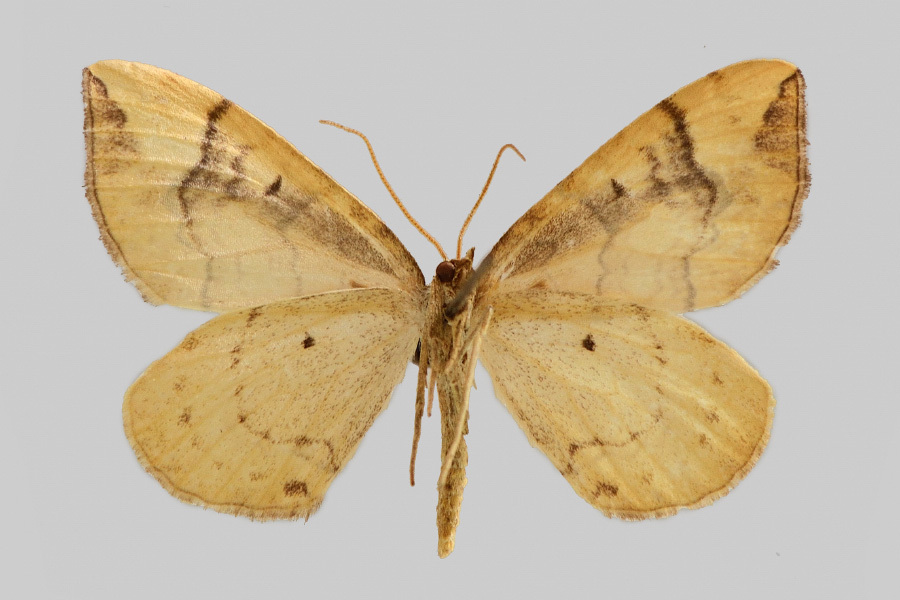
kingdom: Animalia
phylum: Arthropoda
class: Insecta
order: Lepidoptera
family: Geometridae
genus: Eulithis
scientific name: Eulithis populata
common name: Northern spinach
